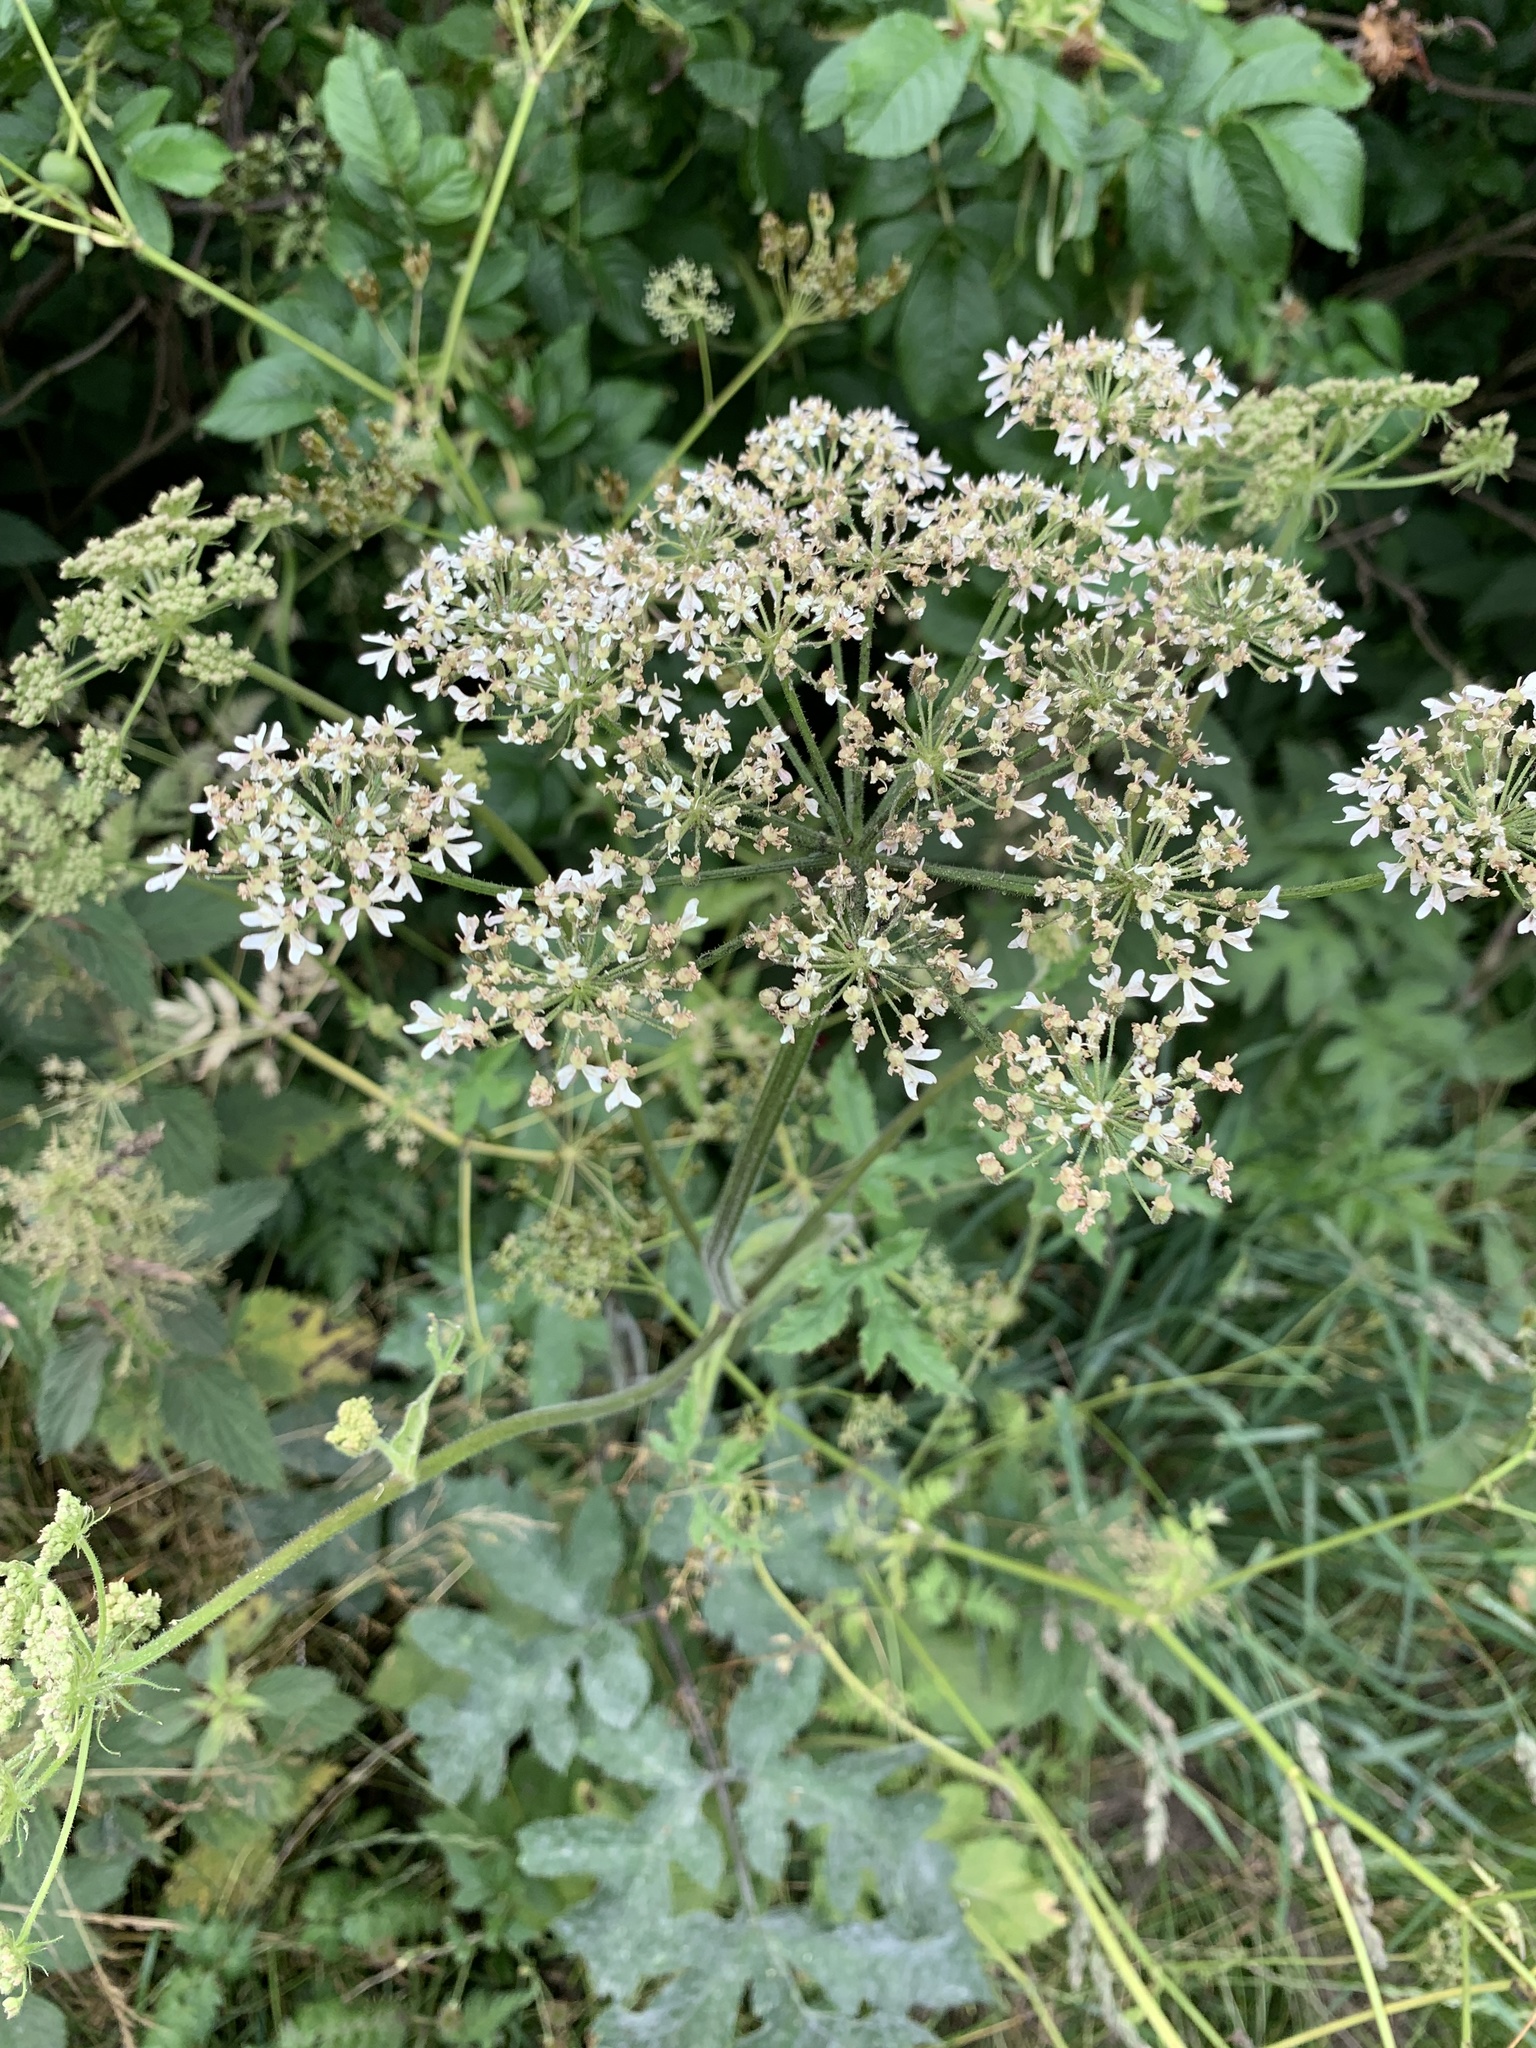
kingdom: Plantae
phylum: Tracheophyta
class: Magnoliopsida
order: Apiales
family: Apiaceae
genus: Heracleum
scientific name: Heracleum sphondylium
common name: Hogweed
